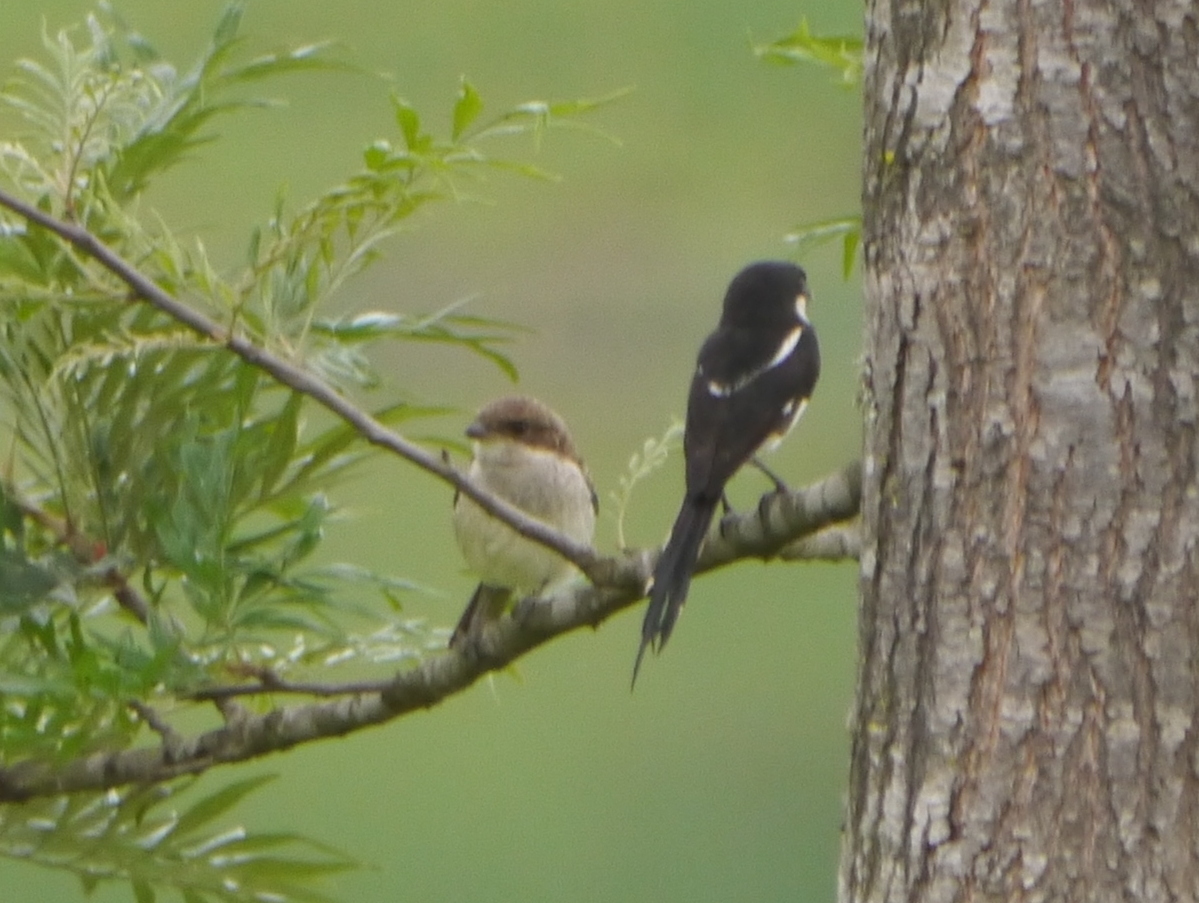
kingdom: Animalia
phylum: Chordata
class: Aves
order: Passeriformes
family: Laniidae
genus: Lanius
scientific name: Lanius humeralis
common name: Northern fiscal
